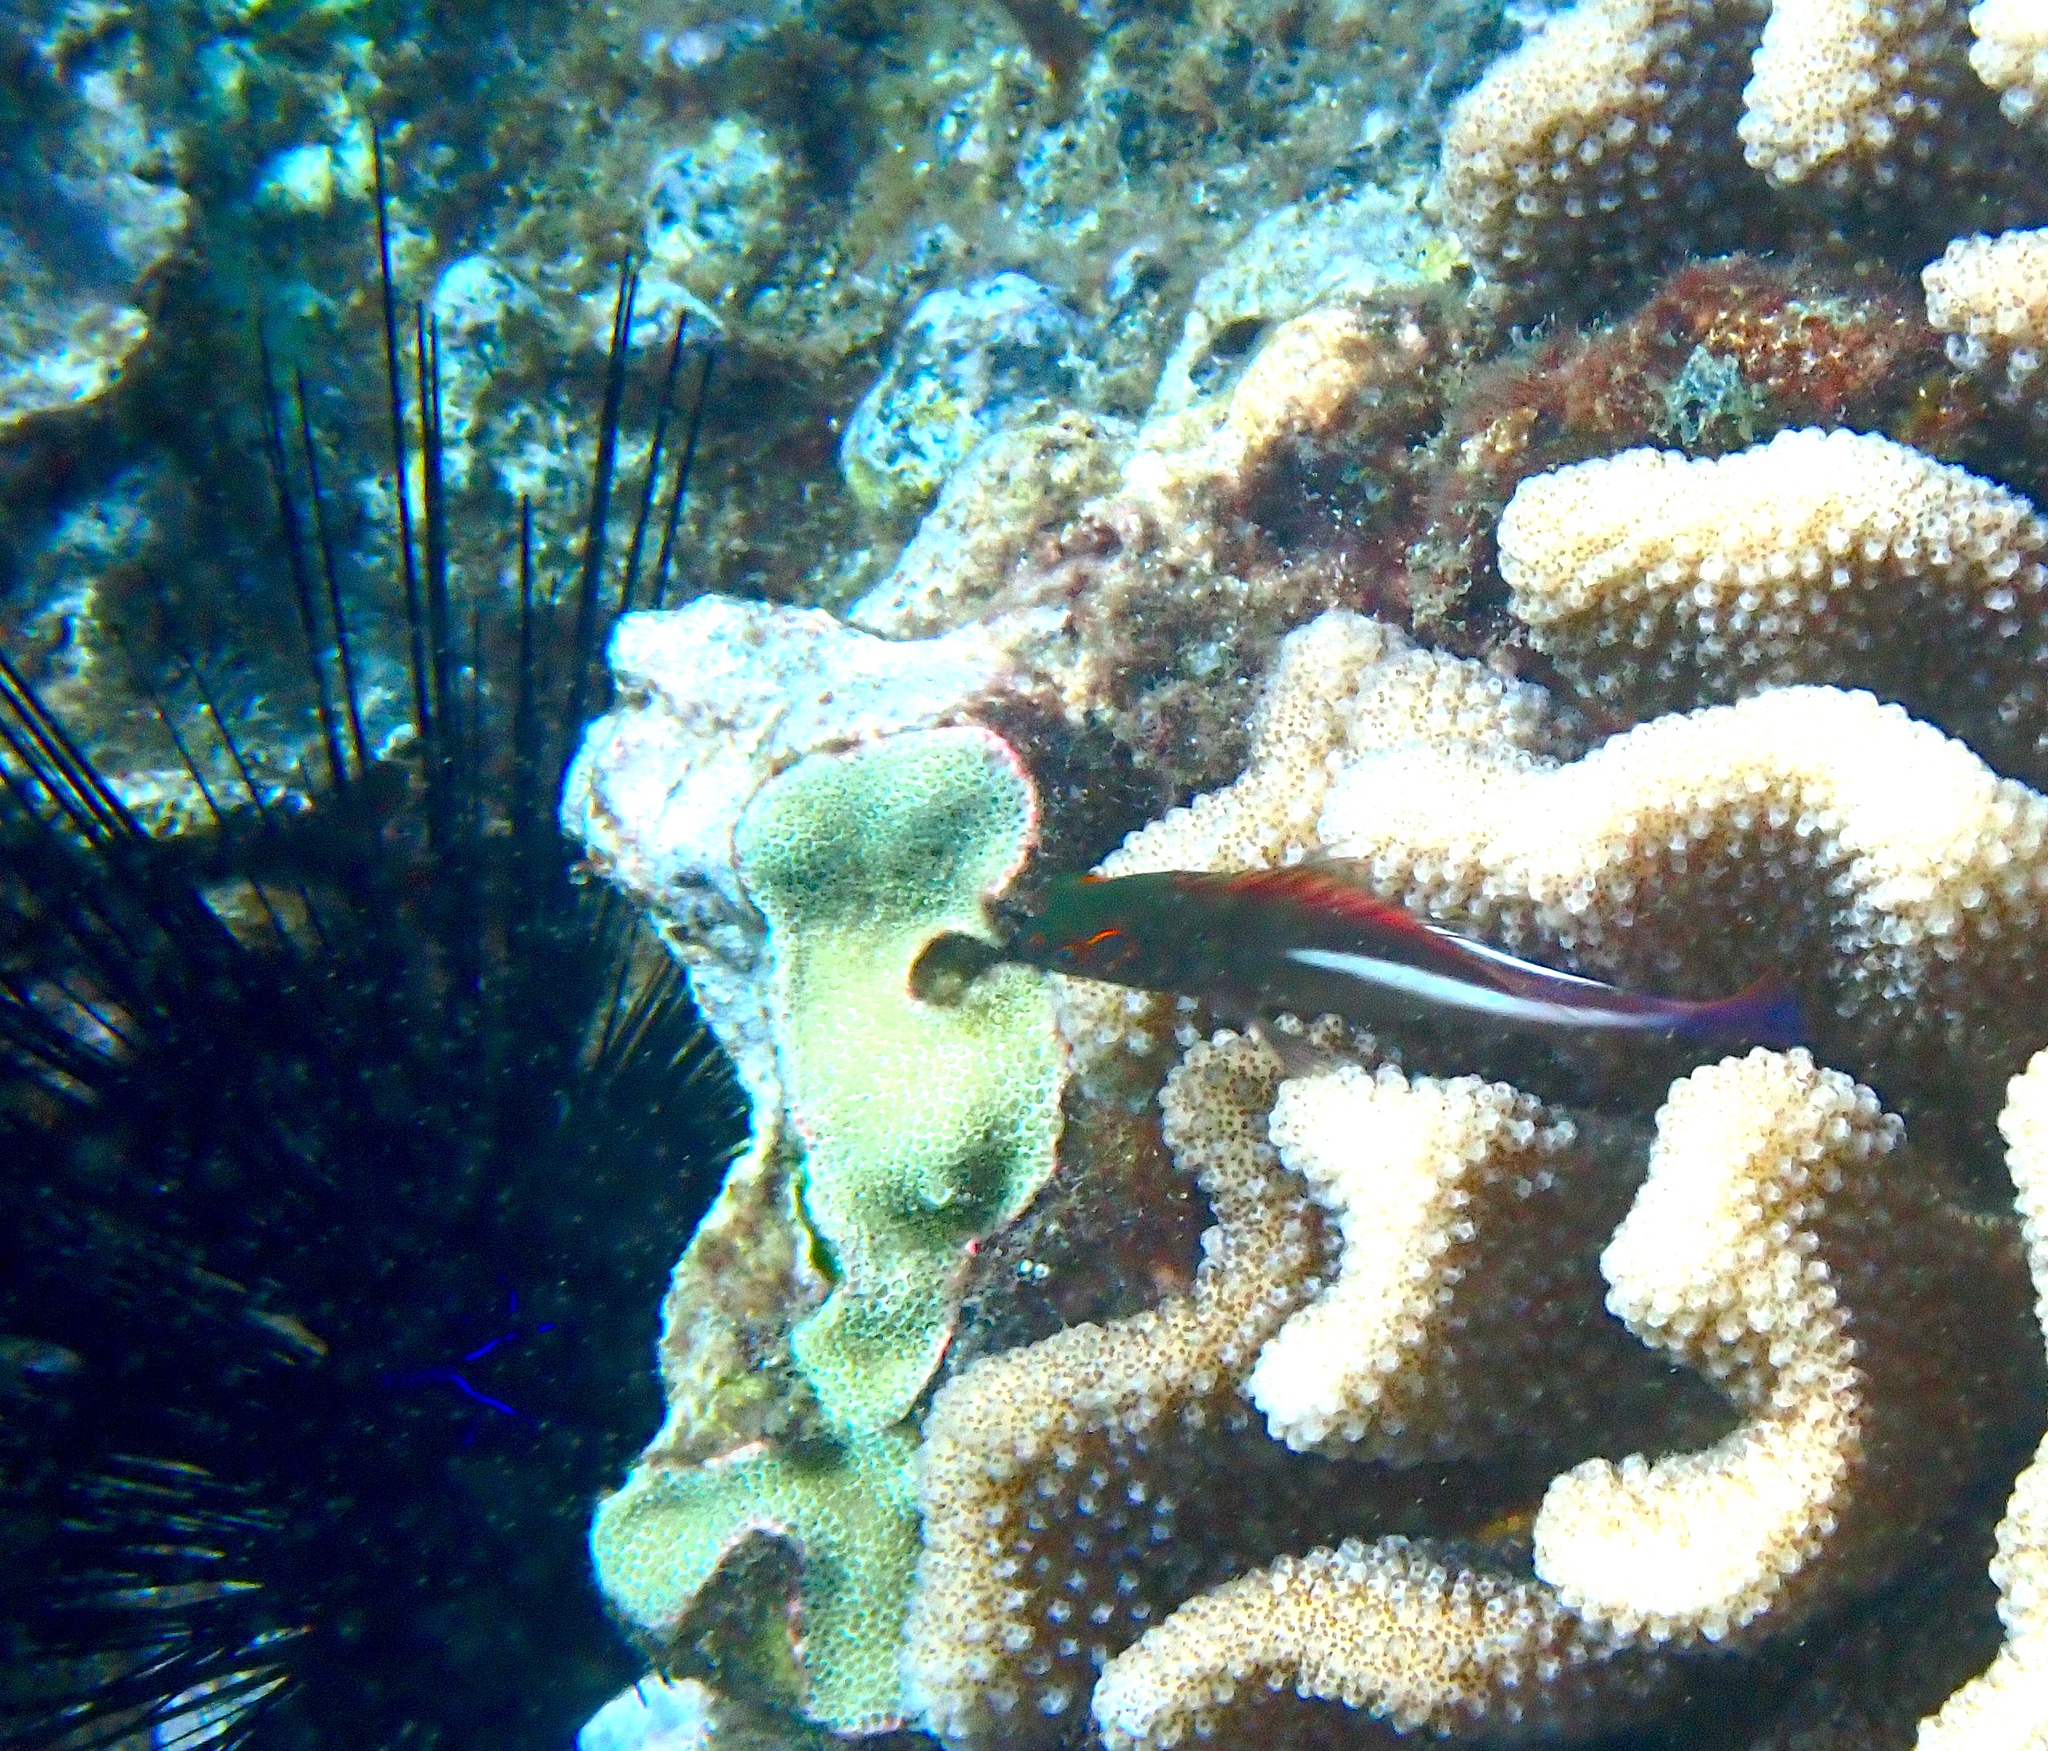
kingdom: Animalia
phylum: Chordata
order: Perciformes
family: Cirrhitidae
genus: Paracirrhites
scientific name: Paracirrhites arcatus
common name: Arc-eye hawkfish
